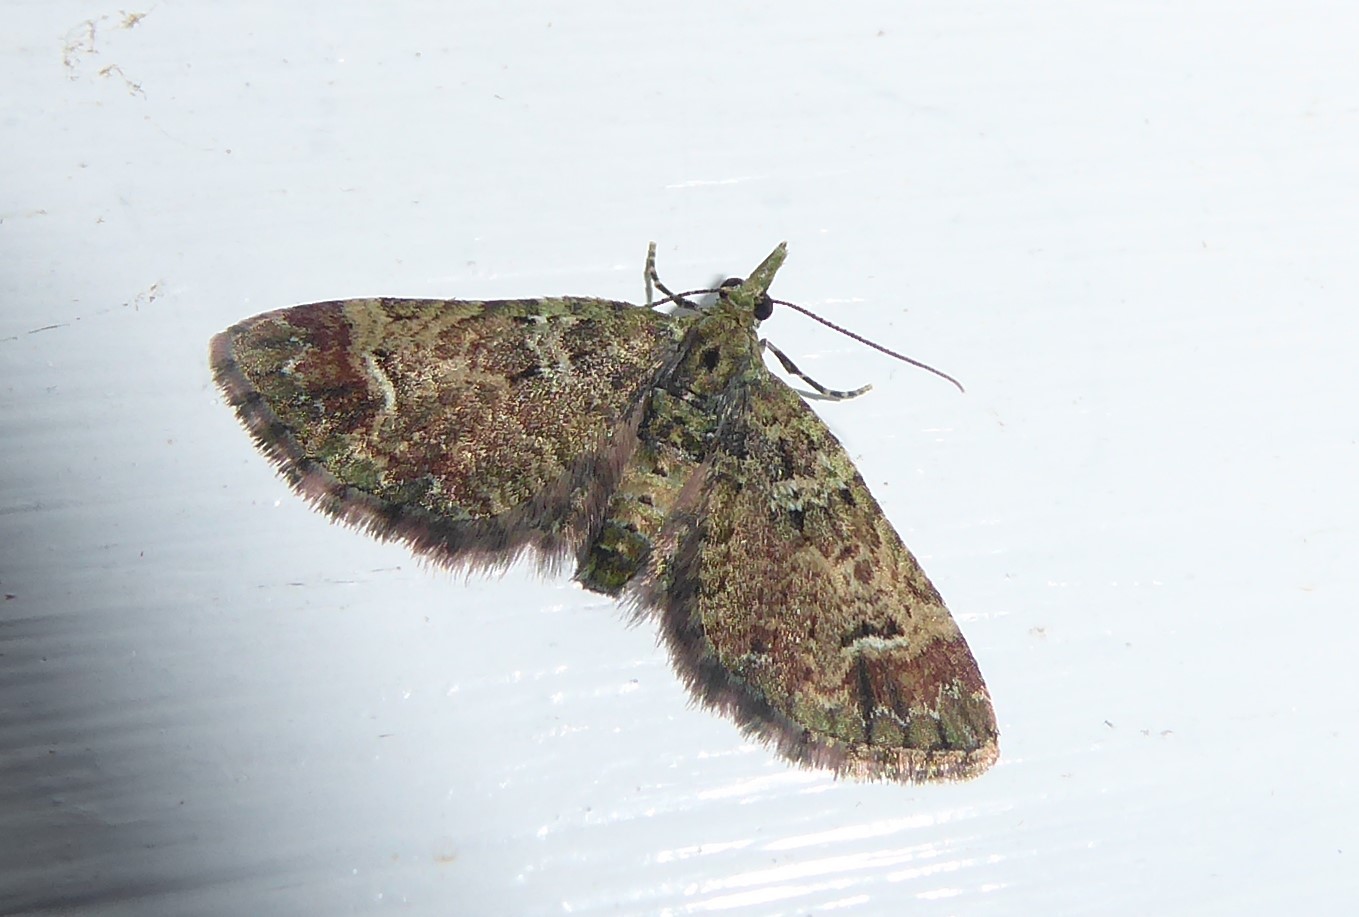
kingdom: Animalia
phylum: Arthropoda
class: Insecta
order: Lepidoptera
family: Geometridae
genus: Pasiphila
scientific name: Pasiphila sandycias
